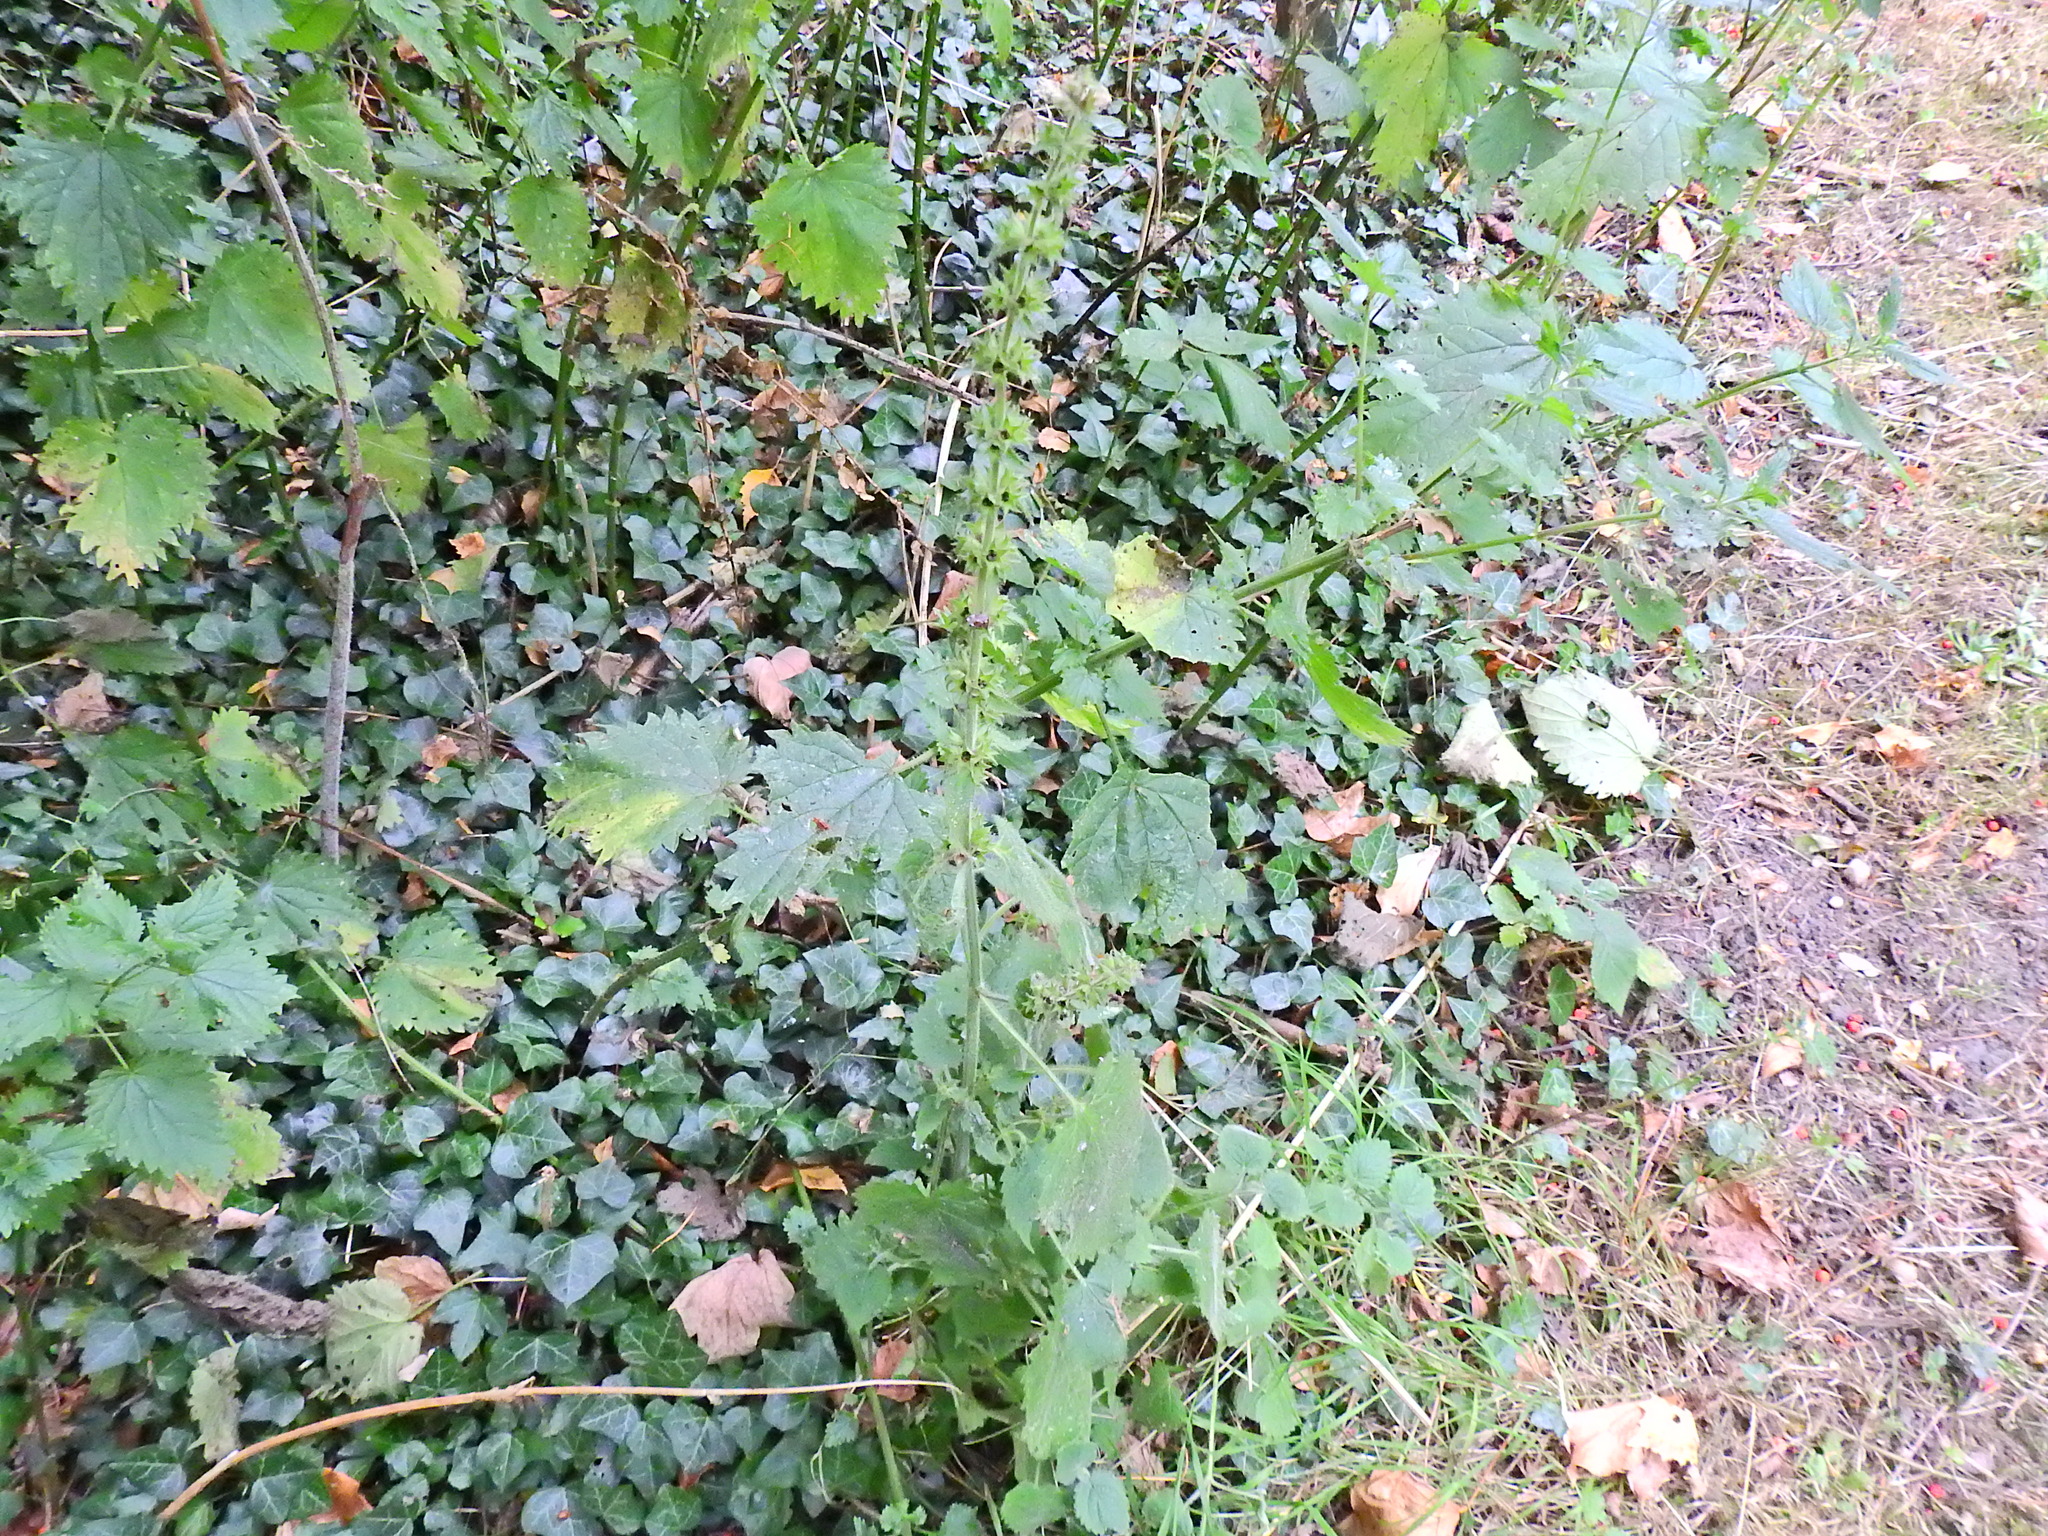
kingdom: Plantae
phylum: Tracheophyta
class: Magnoliopsida
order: Lamiales
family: Lamiaceae
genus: Stachys
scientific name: Stachys sylvatica
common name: Hedge woundwort
